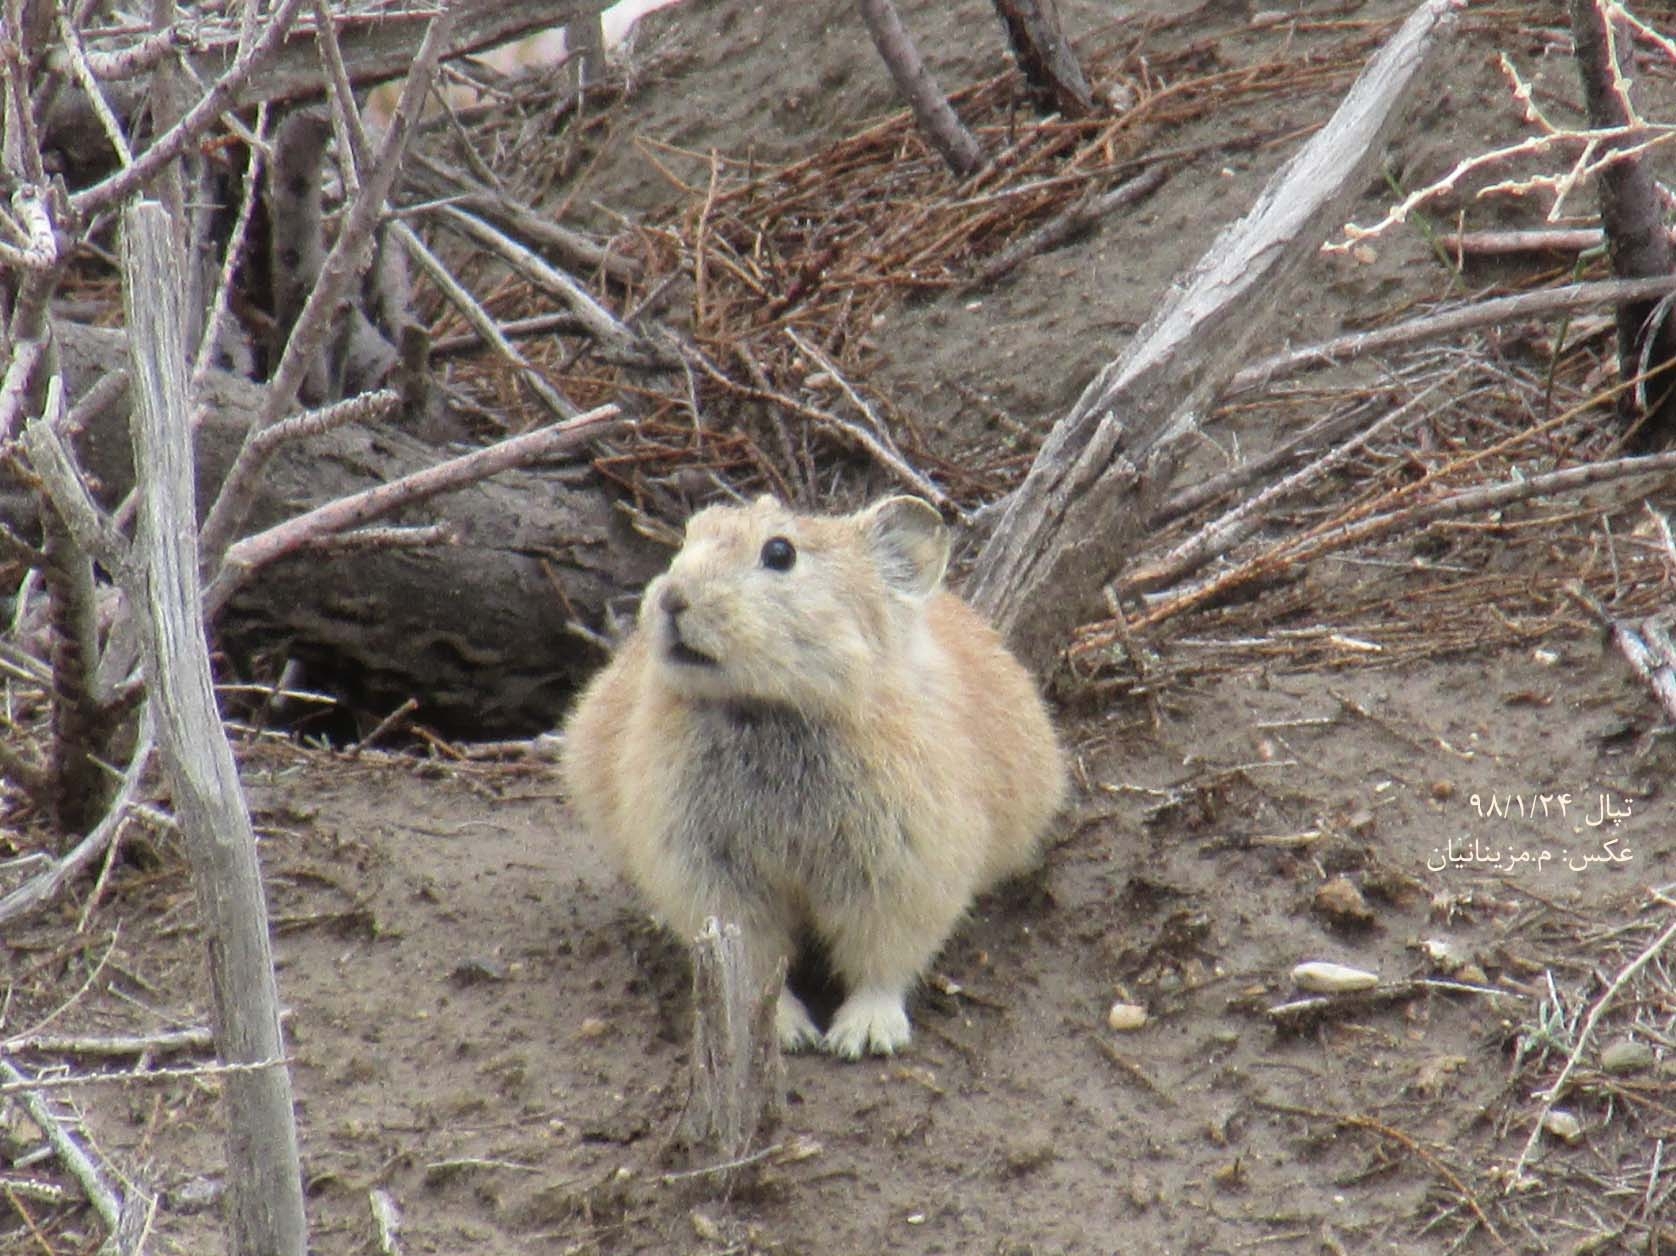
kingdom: Animalia
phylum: Chordata
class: Mammalia
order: Lagomorpha
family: Ochotonidae
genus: Ochotona
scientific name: Ochotona rufescens
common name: Afghan pika
